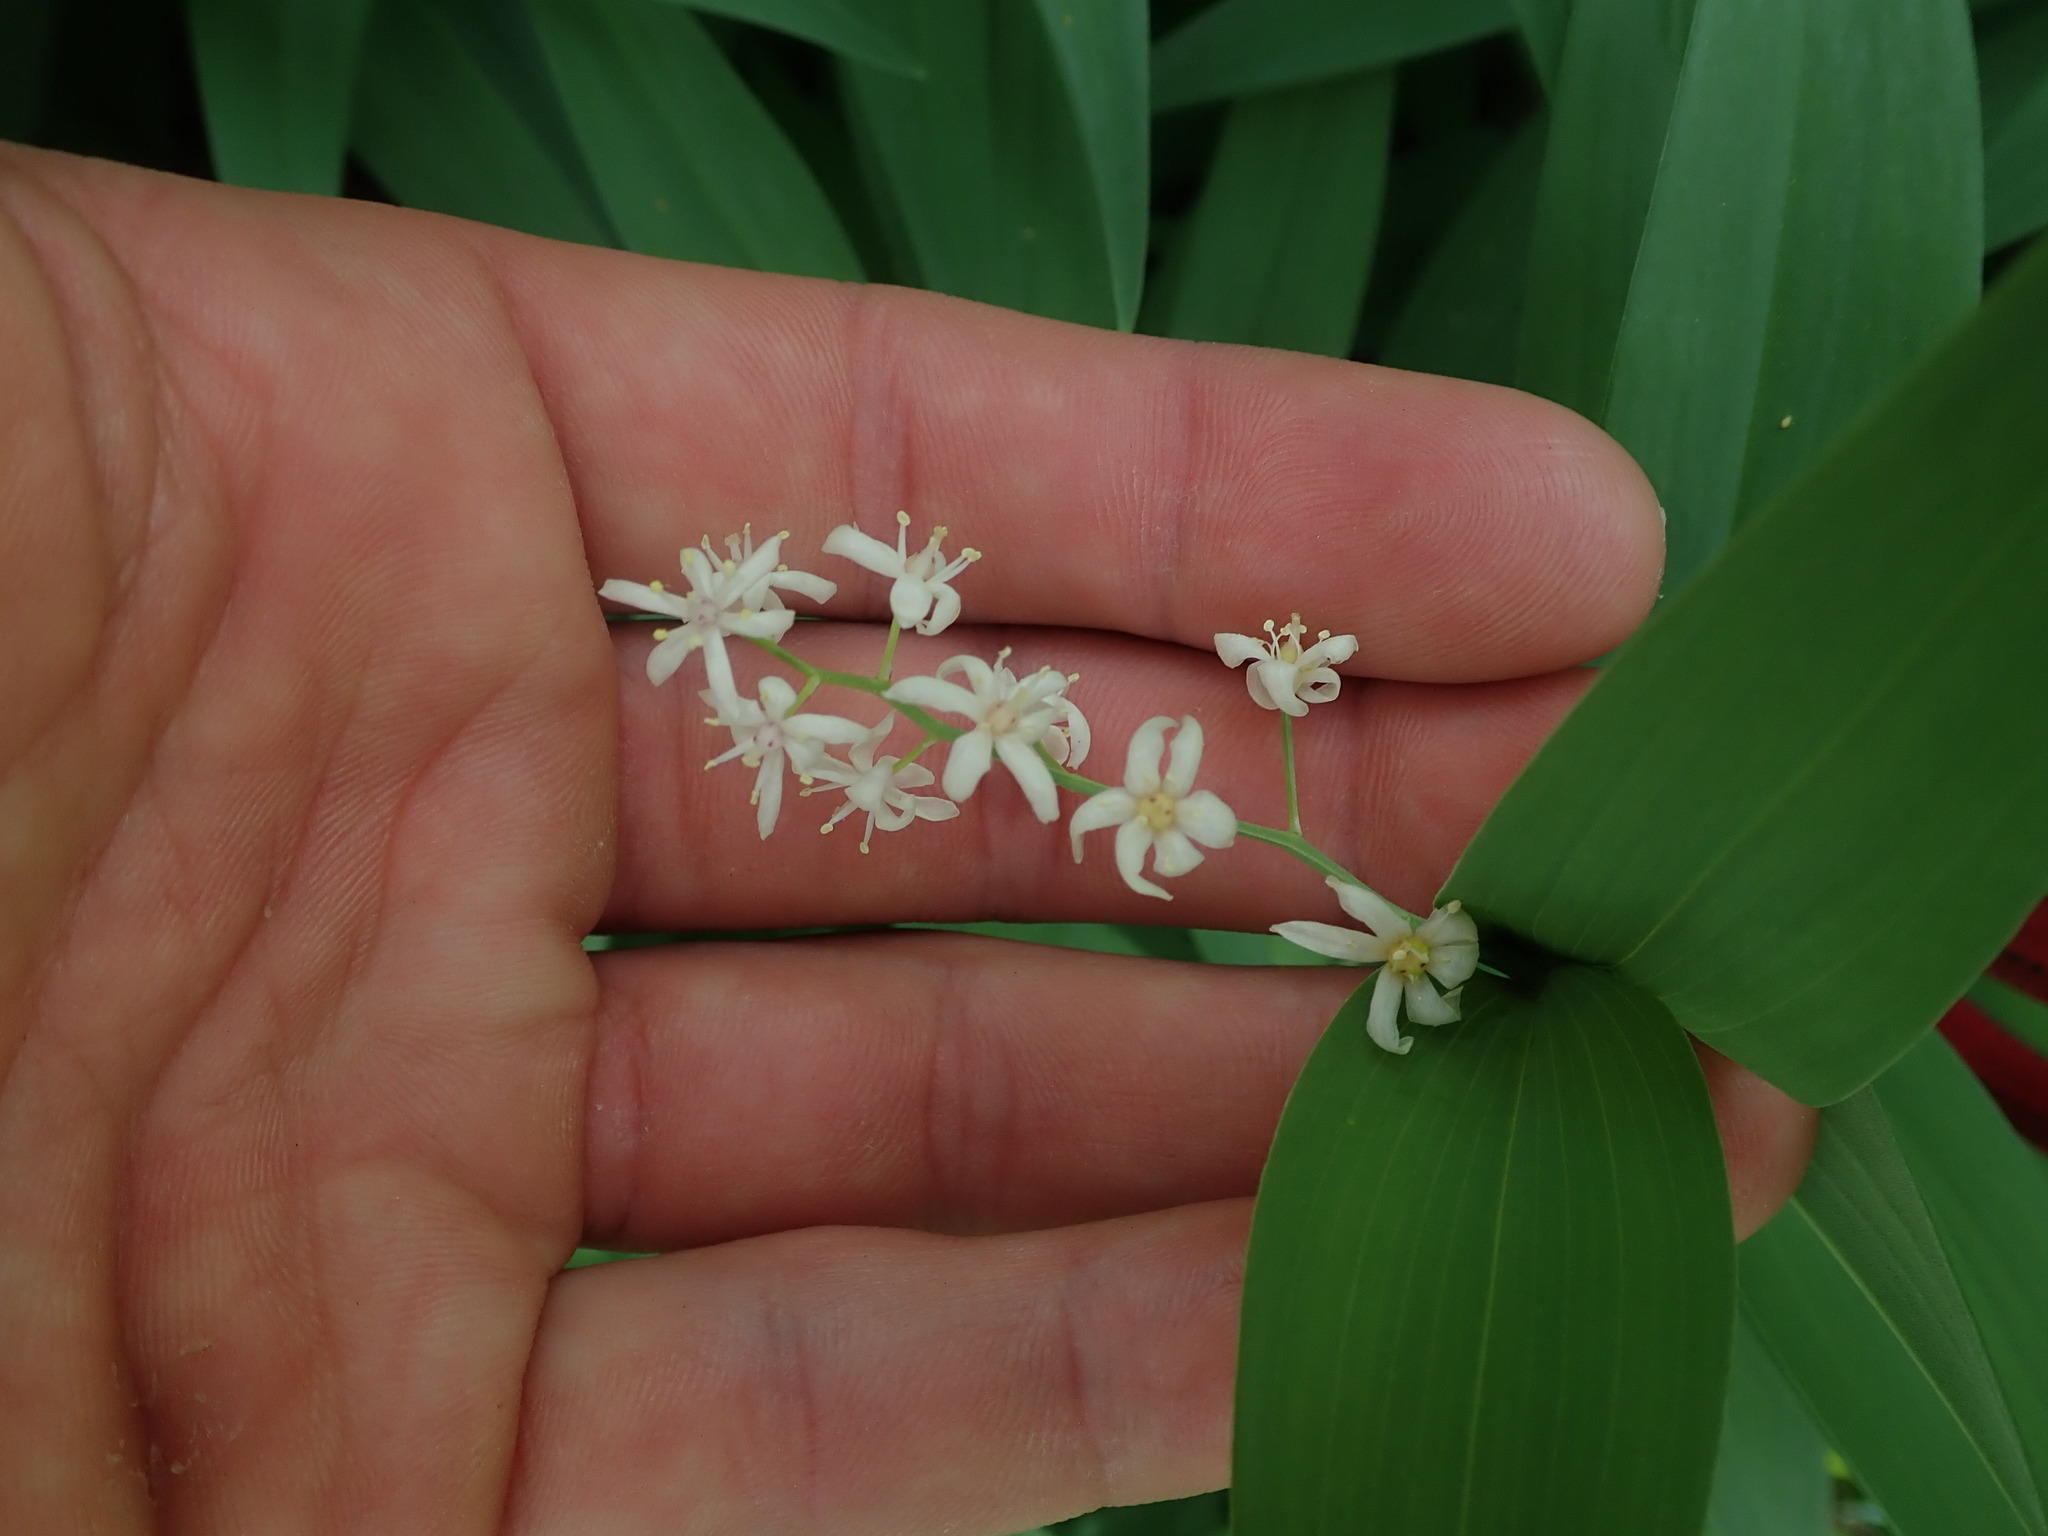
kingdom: Plantae
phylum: Tracheophyta
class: Liliopsida
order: Asparagales
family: Asparagaceae
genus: Maianthemum
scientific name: Maianthemum stellatum
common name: Little false solomon's seal
